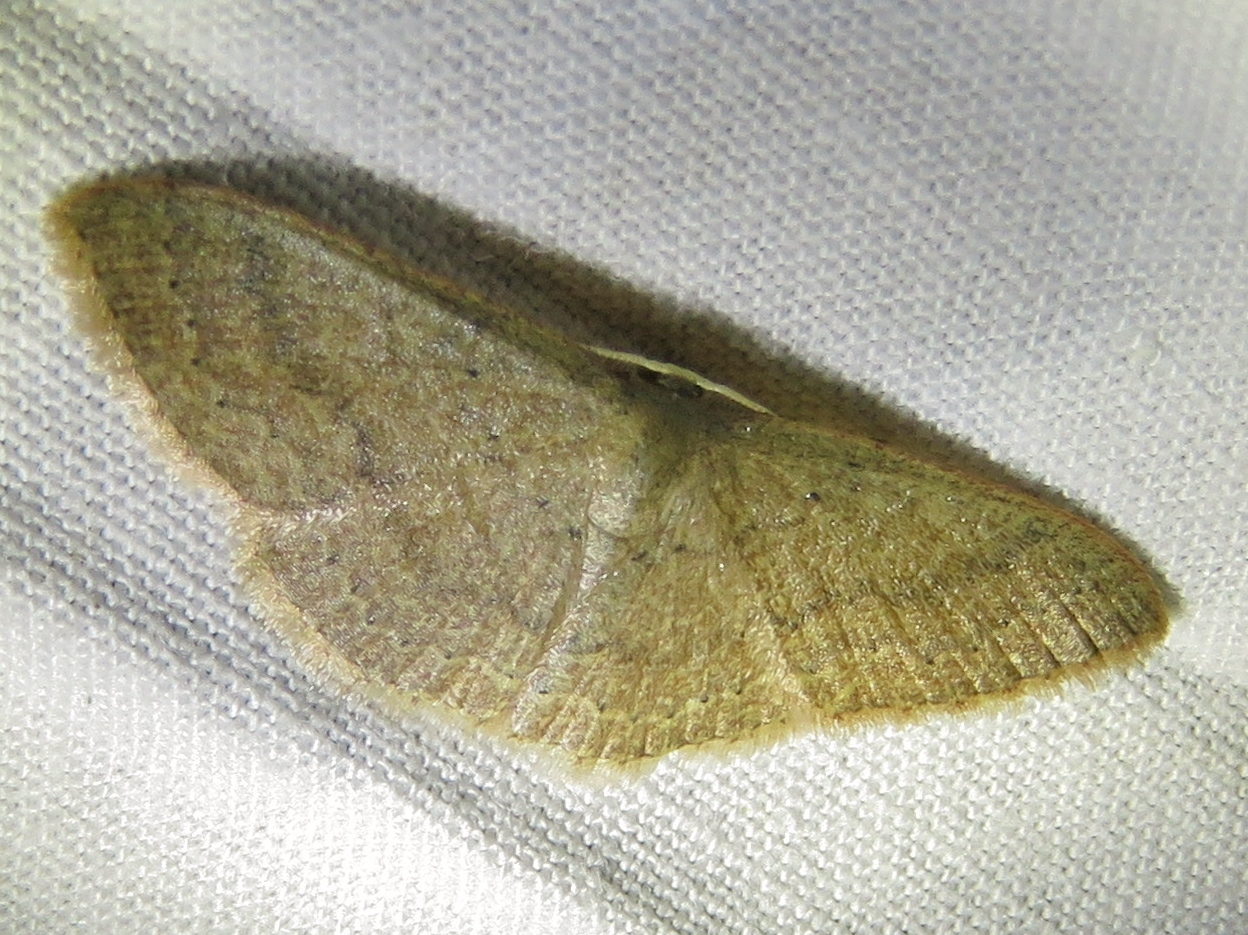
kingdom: Animalia
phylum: Arthropoda
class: Insecta
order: Lepidoptera
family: Geometridae
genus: Pleuroprucha
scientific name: Pleuroprucha insulsaria
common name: Common tan wave
